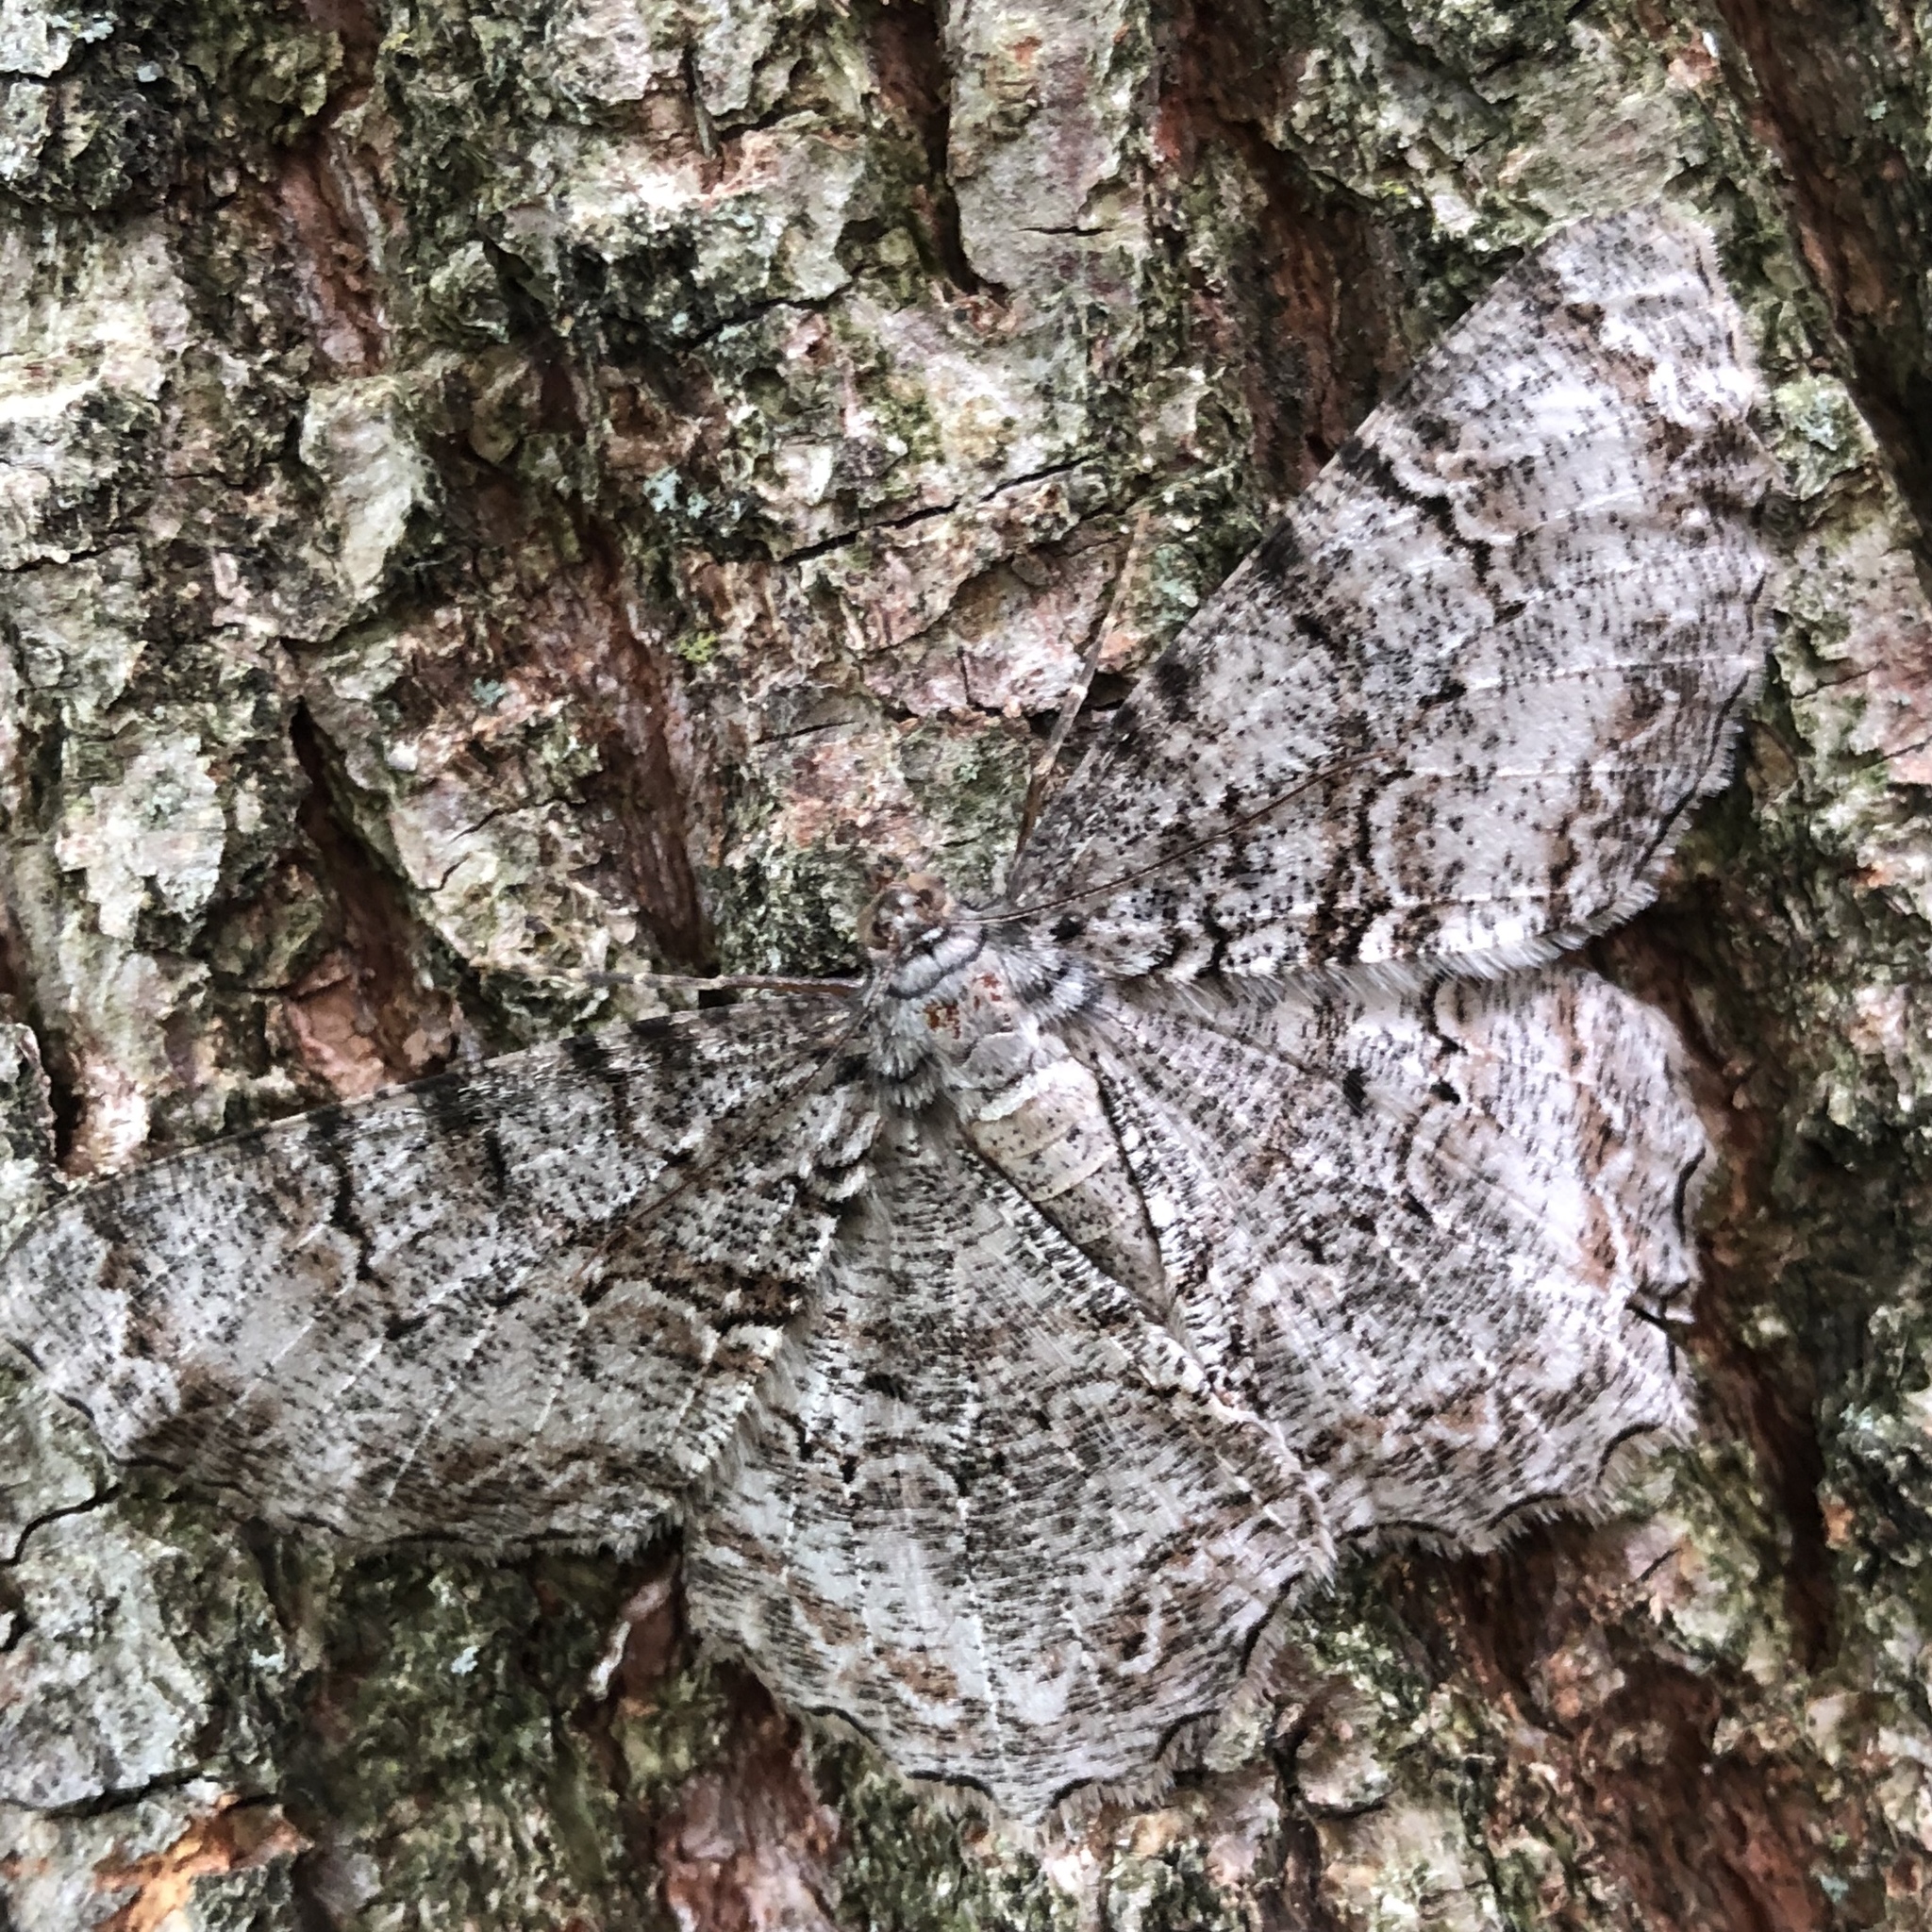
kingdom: Animalia
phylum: Arthropoda
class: Insecta
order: Lepidoptera
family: Geometridae
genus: Epimecis
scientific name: Epimecis hortaria
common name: Tulip-tree beauty
